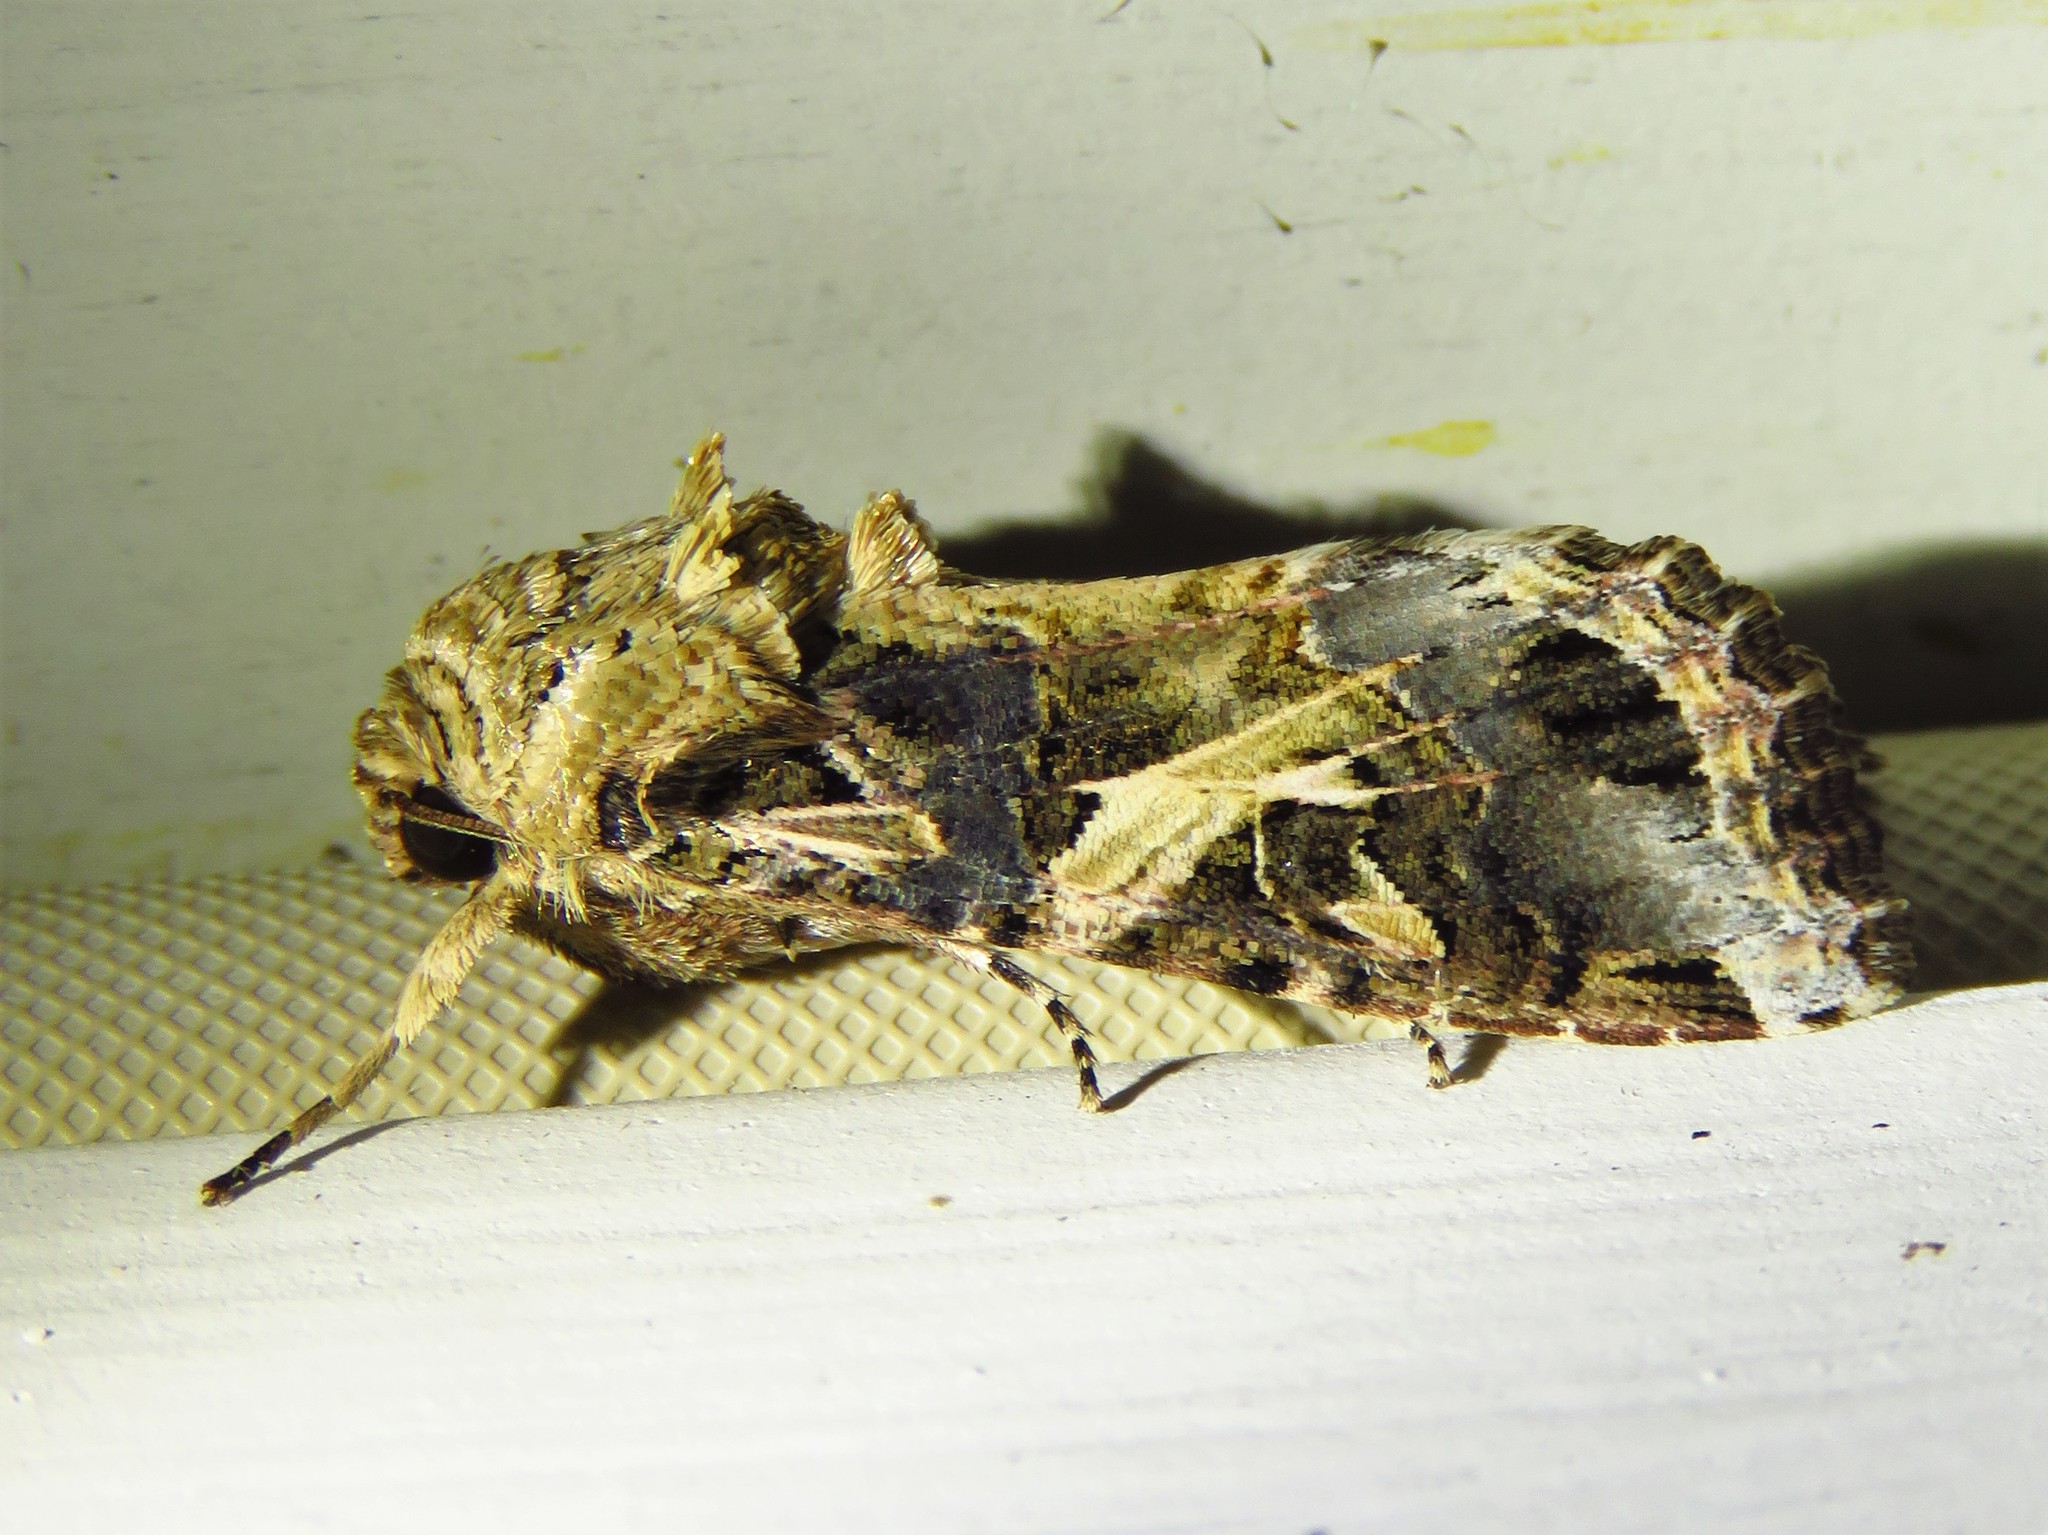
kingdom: Animalia
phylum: Arthropoda
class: Insecta
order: Lepidoptera
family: Noctuidae
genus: Spodoptera
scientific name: Spodoptera ornithogalli
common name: Yellow-striped armyworm
